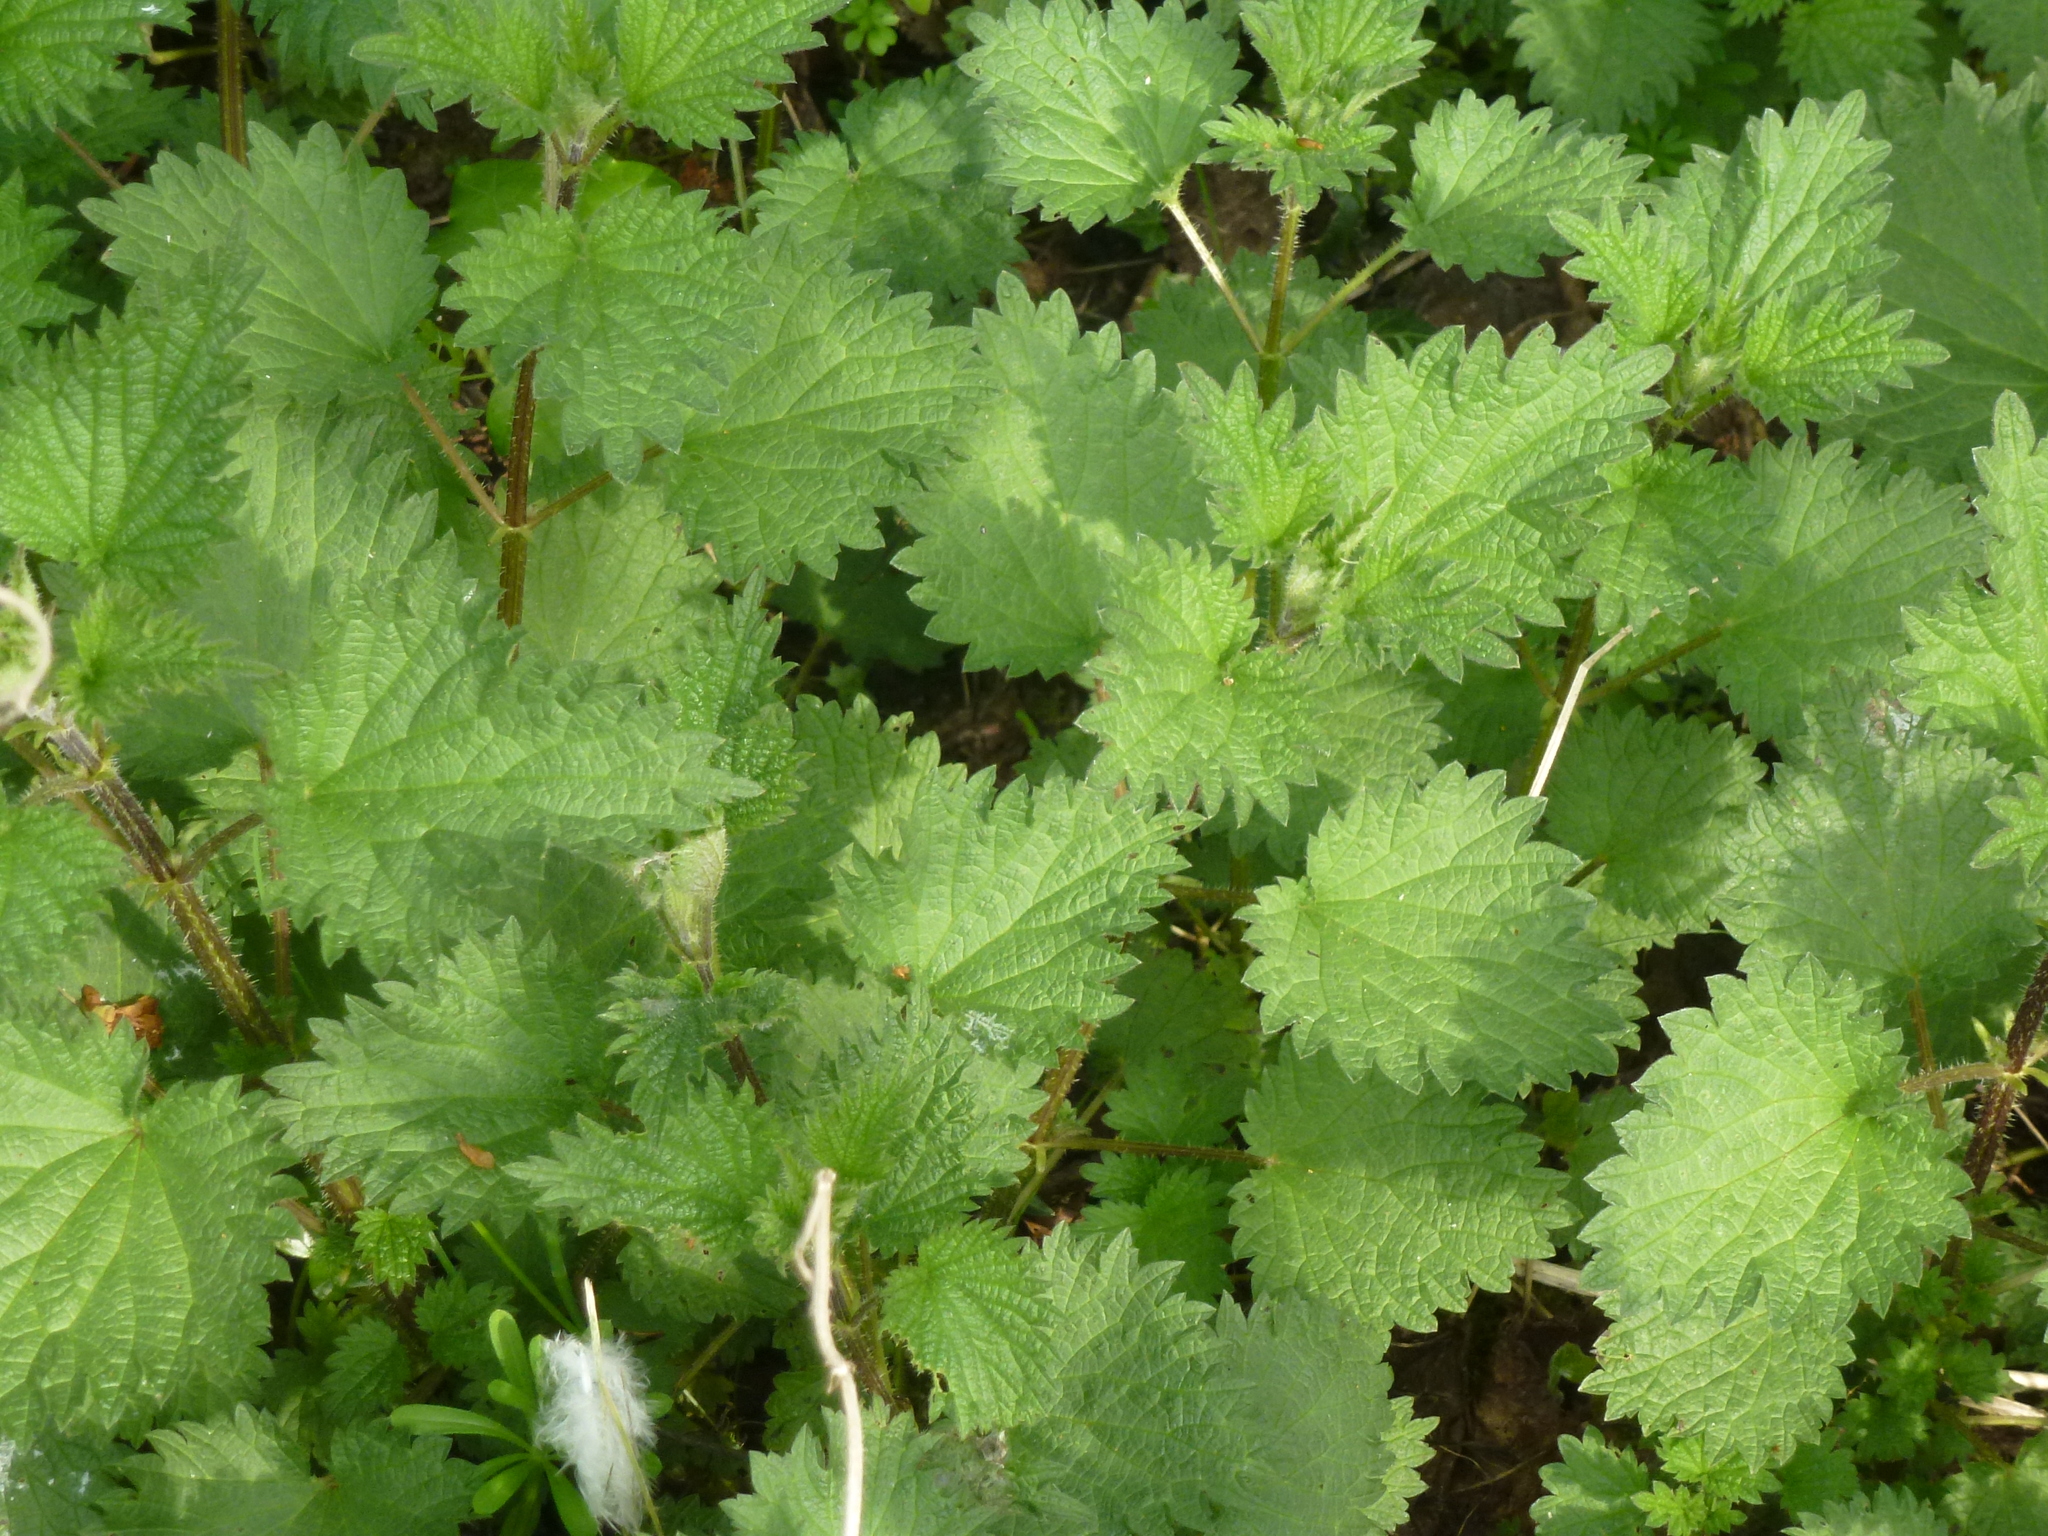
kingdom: Plantae
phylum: Tracheophyta
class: Magnoliopsida
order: Rosales
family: Urticaceae
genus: Urtica
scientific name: Urtica dioica
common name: Common nettle
